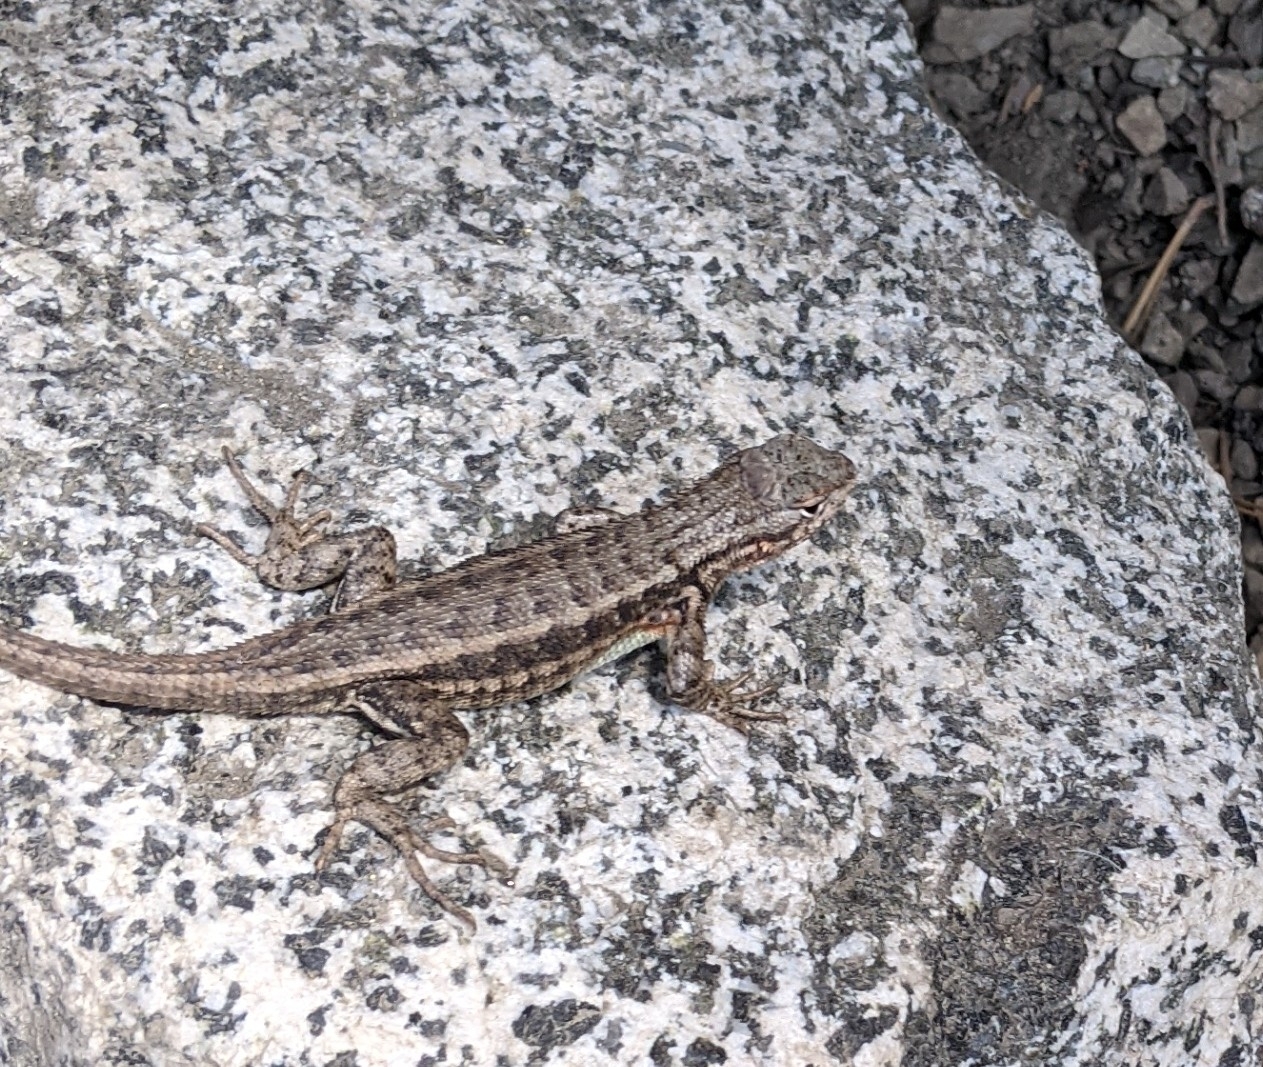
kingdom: Animalia
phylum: Chordata
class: Squamata
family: Phrynosomatidae
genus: Sceloporus
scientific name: Sceloporus graciosus
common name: Sagebrush lizard
